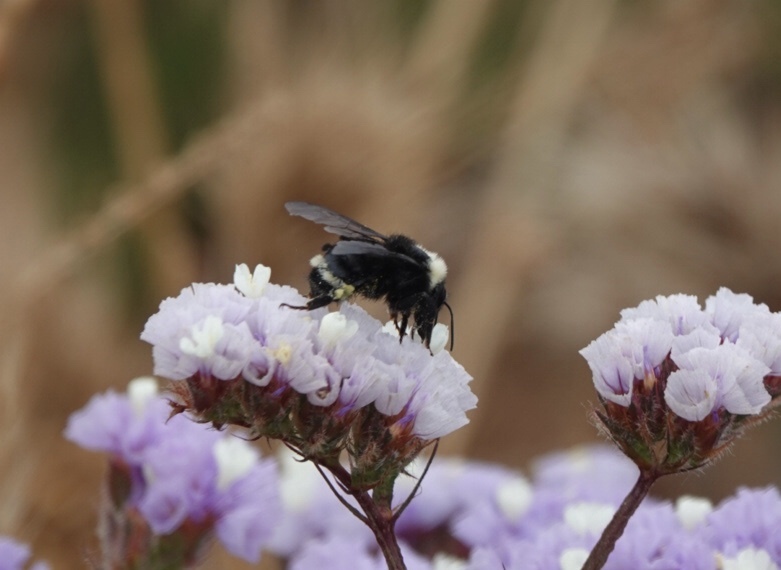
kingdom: Animalia
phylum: Arthropoda
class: Insecta
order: Hymenoptera
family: Apidae
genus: Bombus
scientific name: Bombus californicus
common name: California bumble bee
